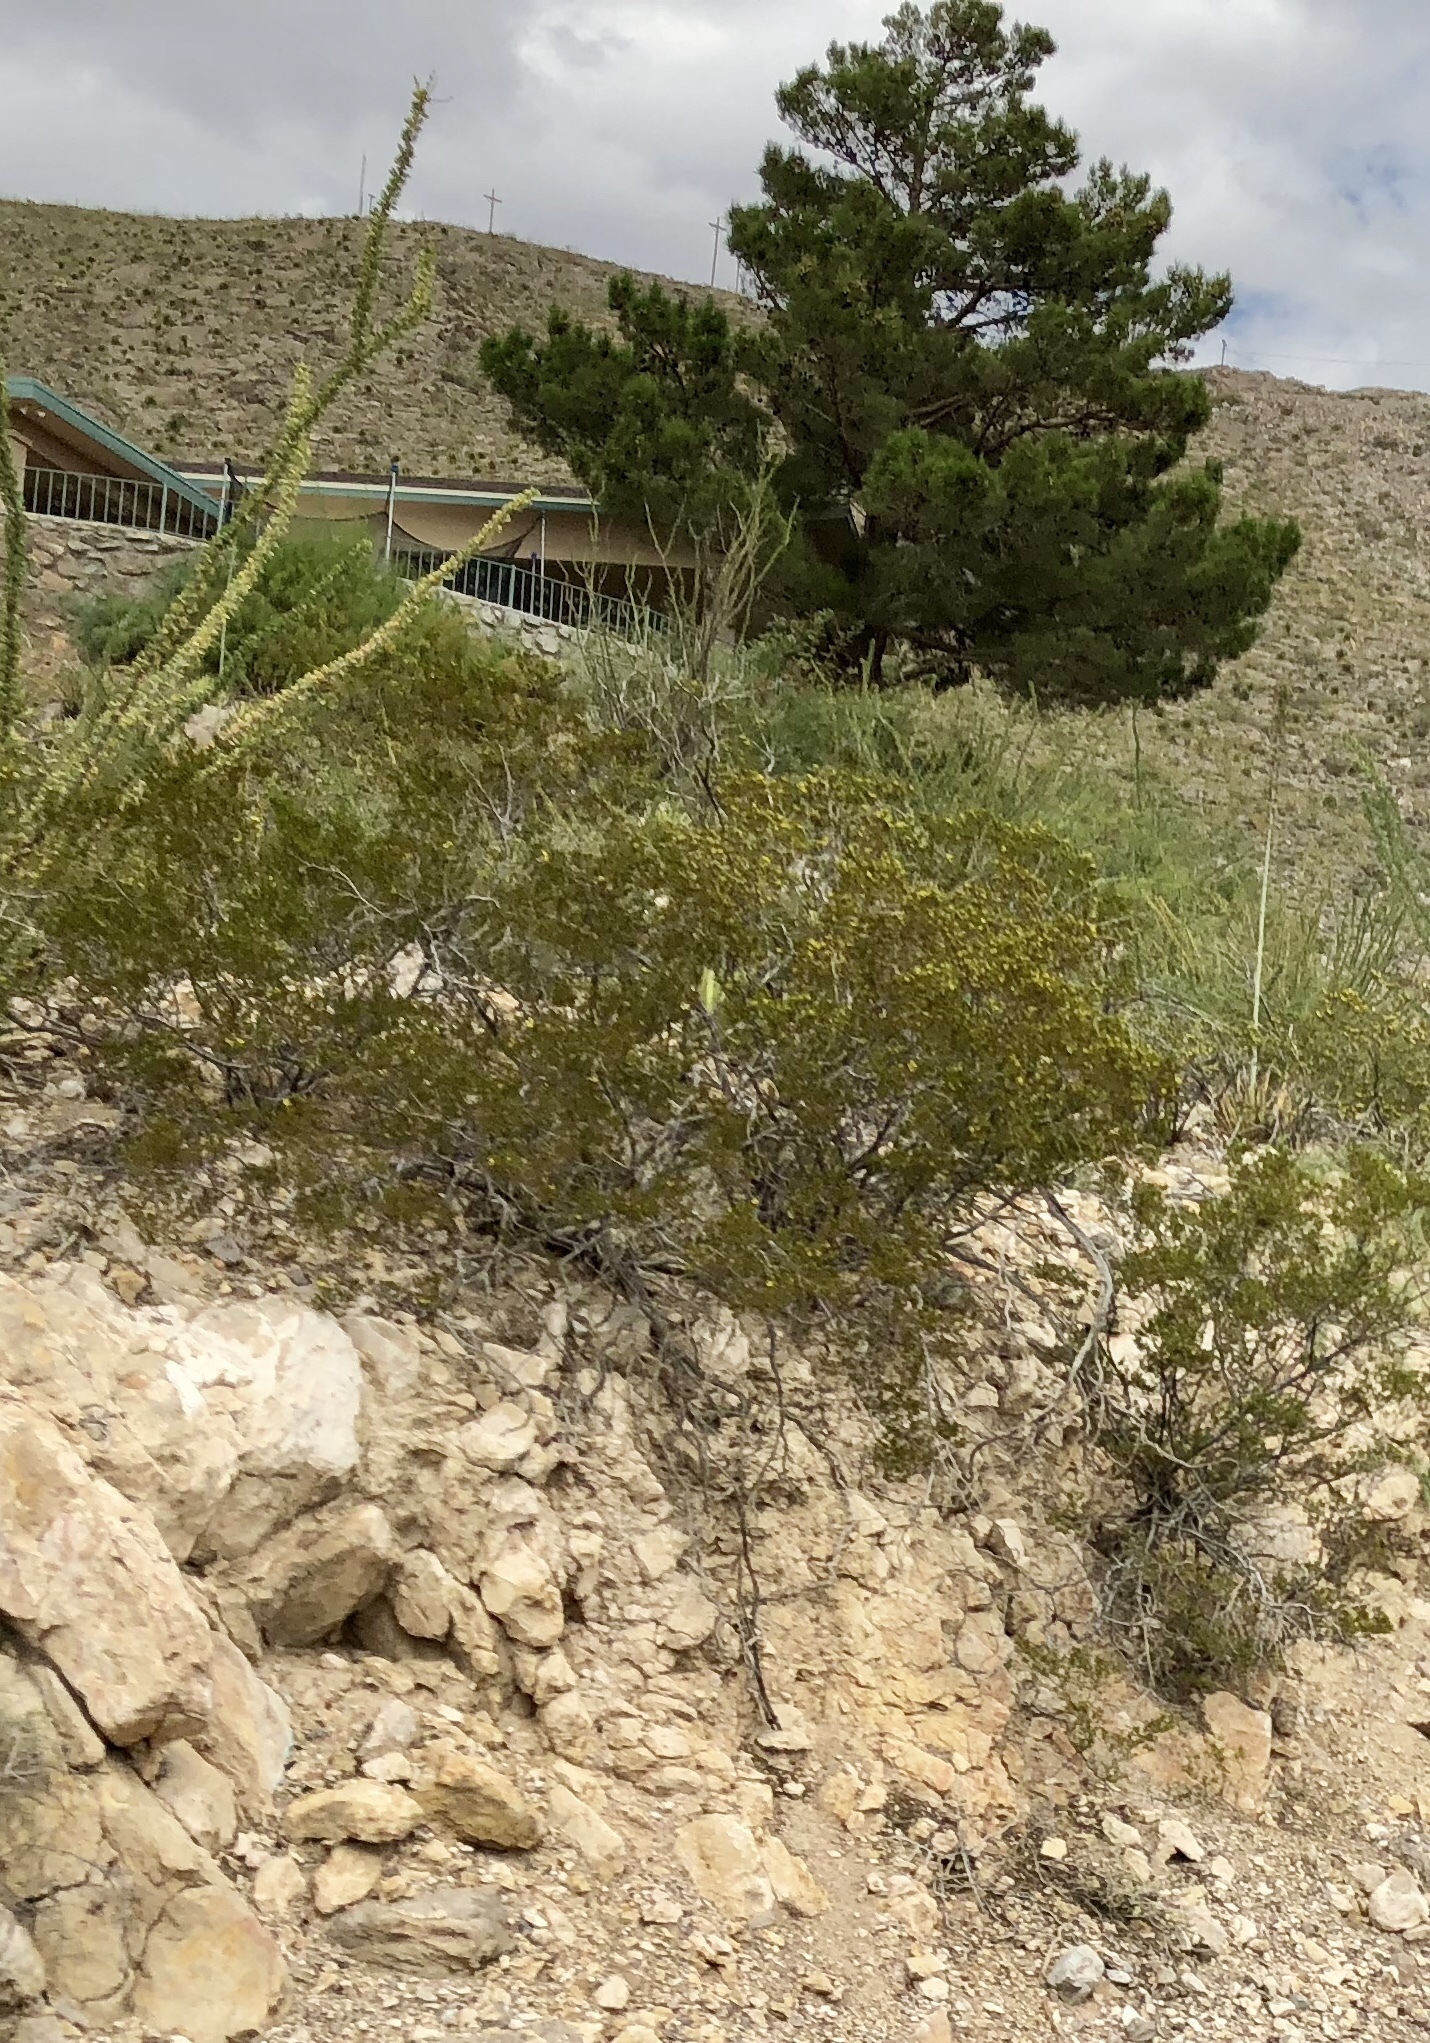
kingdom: Plantae
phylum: Tracheophyta
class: Magnoliopsida
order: Zygophyllales
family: Zygophyllaceae
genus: Larrea
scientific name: Larrea tridentata
